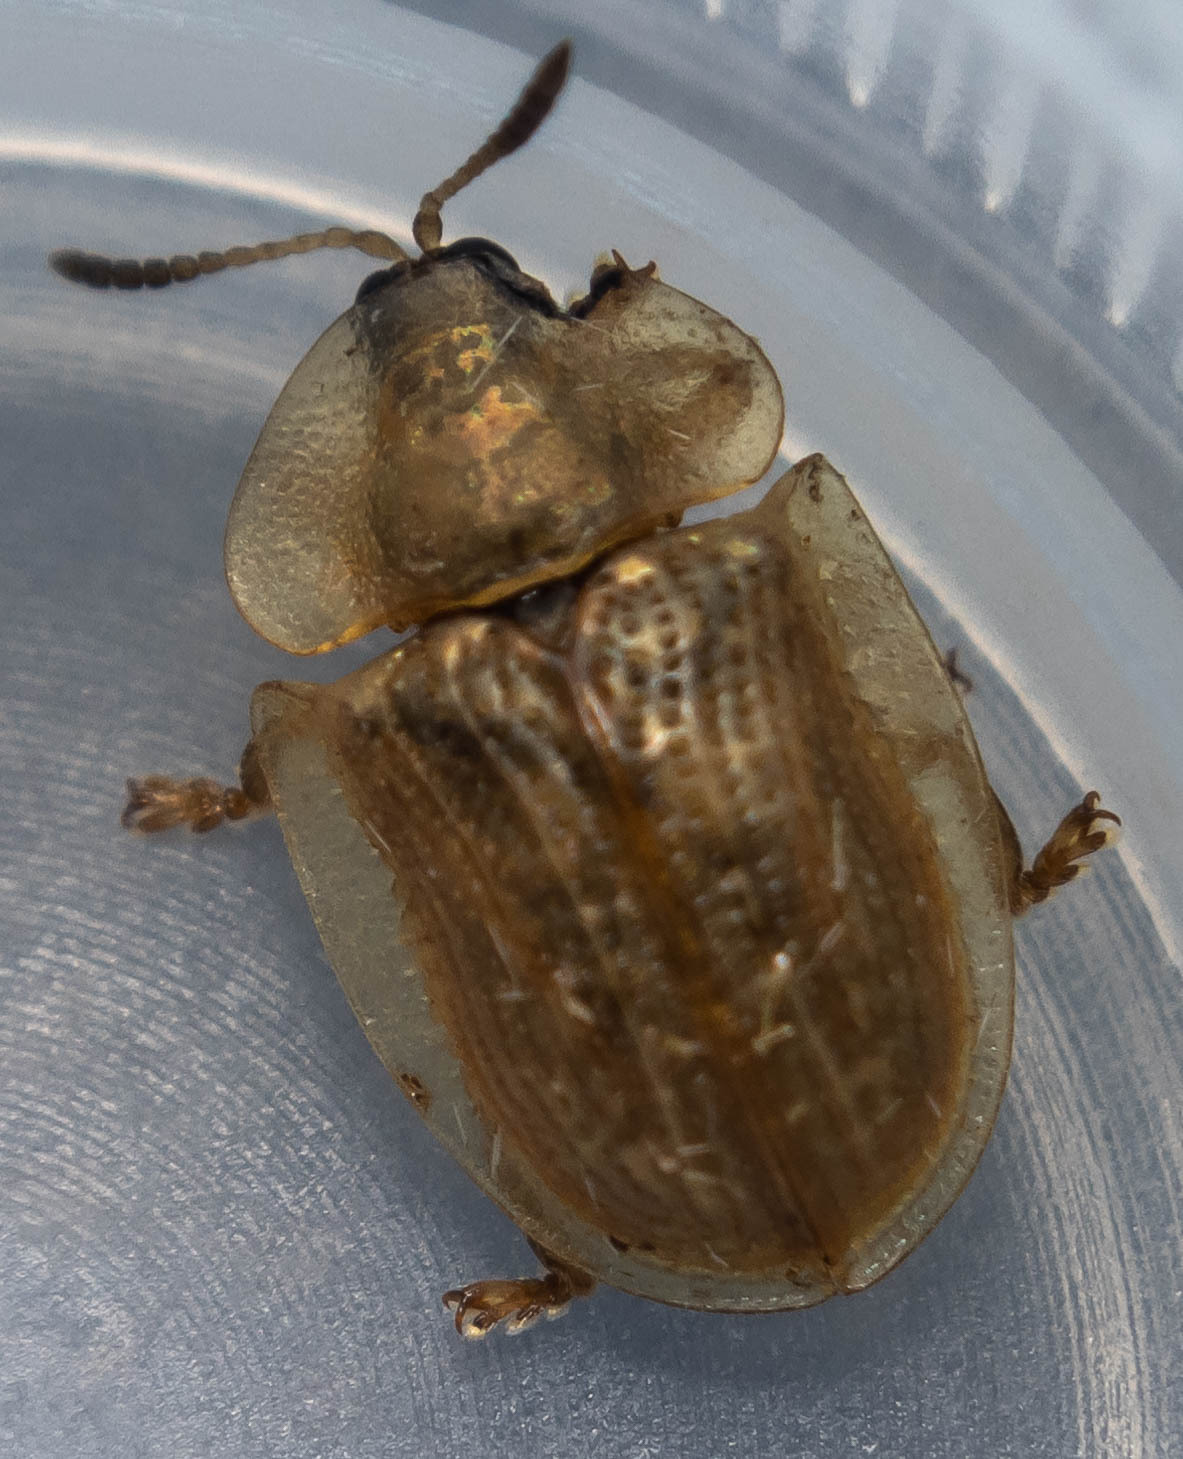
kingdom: Animalia
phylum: Arthropoda
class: Insecta
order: Coleoptera
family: Chrysomelidae
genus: Cassida
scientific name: Cassida flaveola
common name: Pale tortoise beetle
